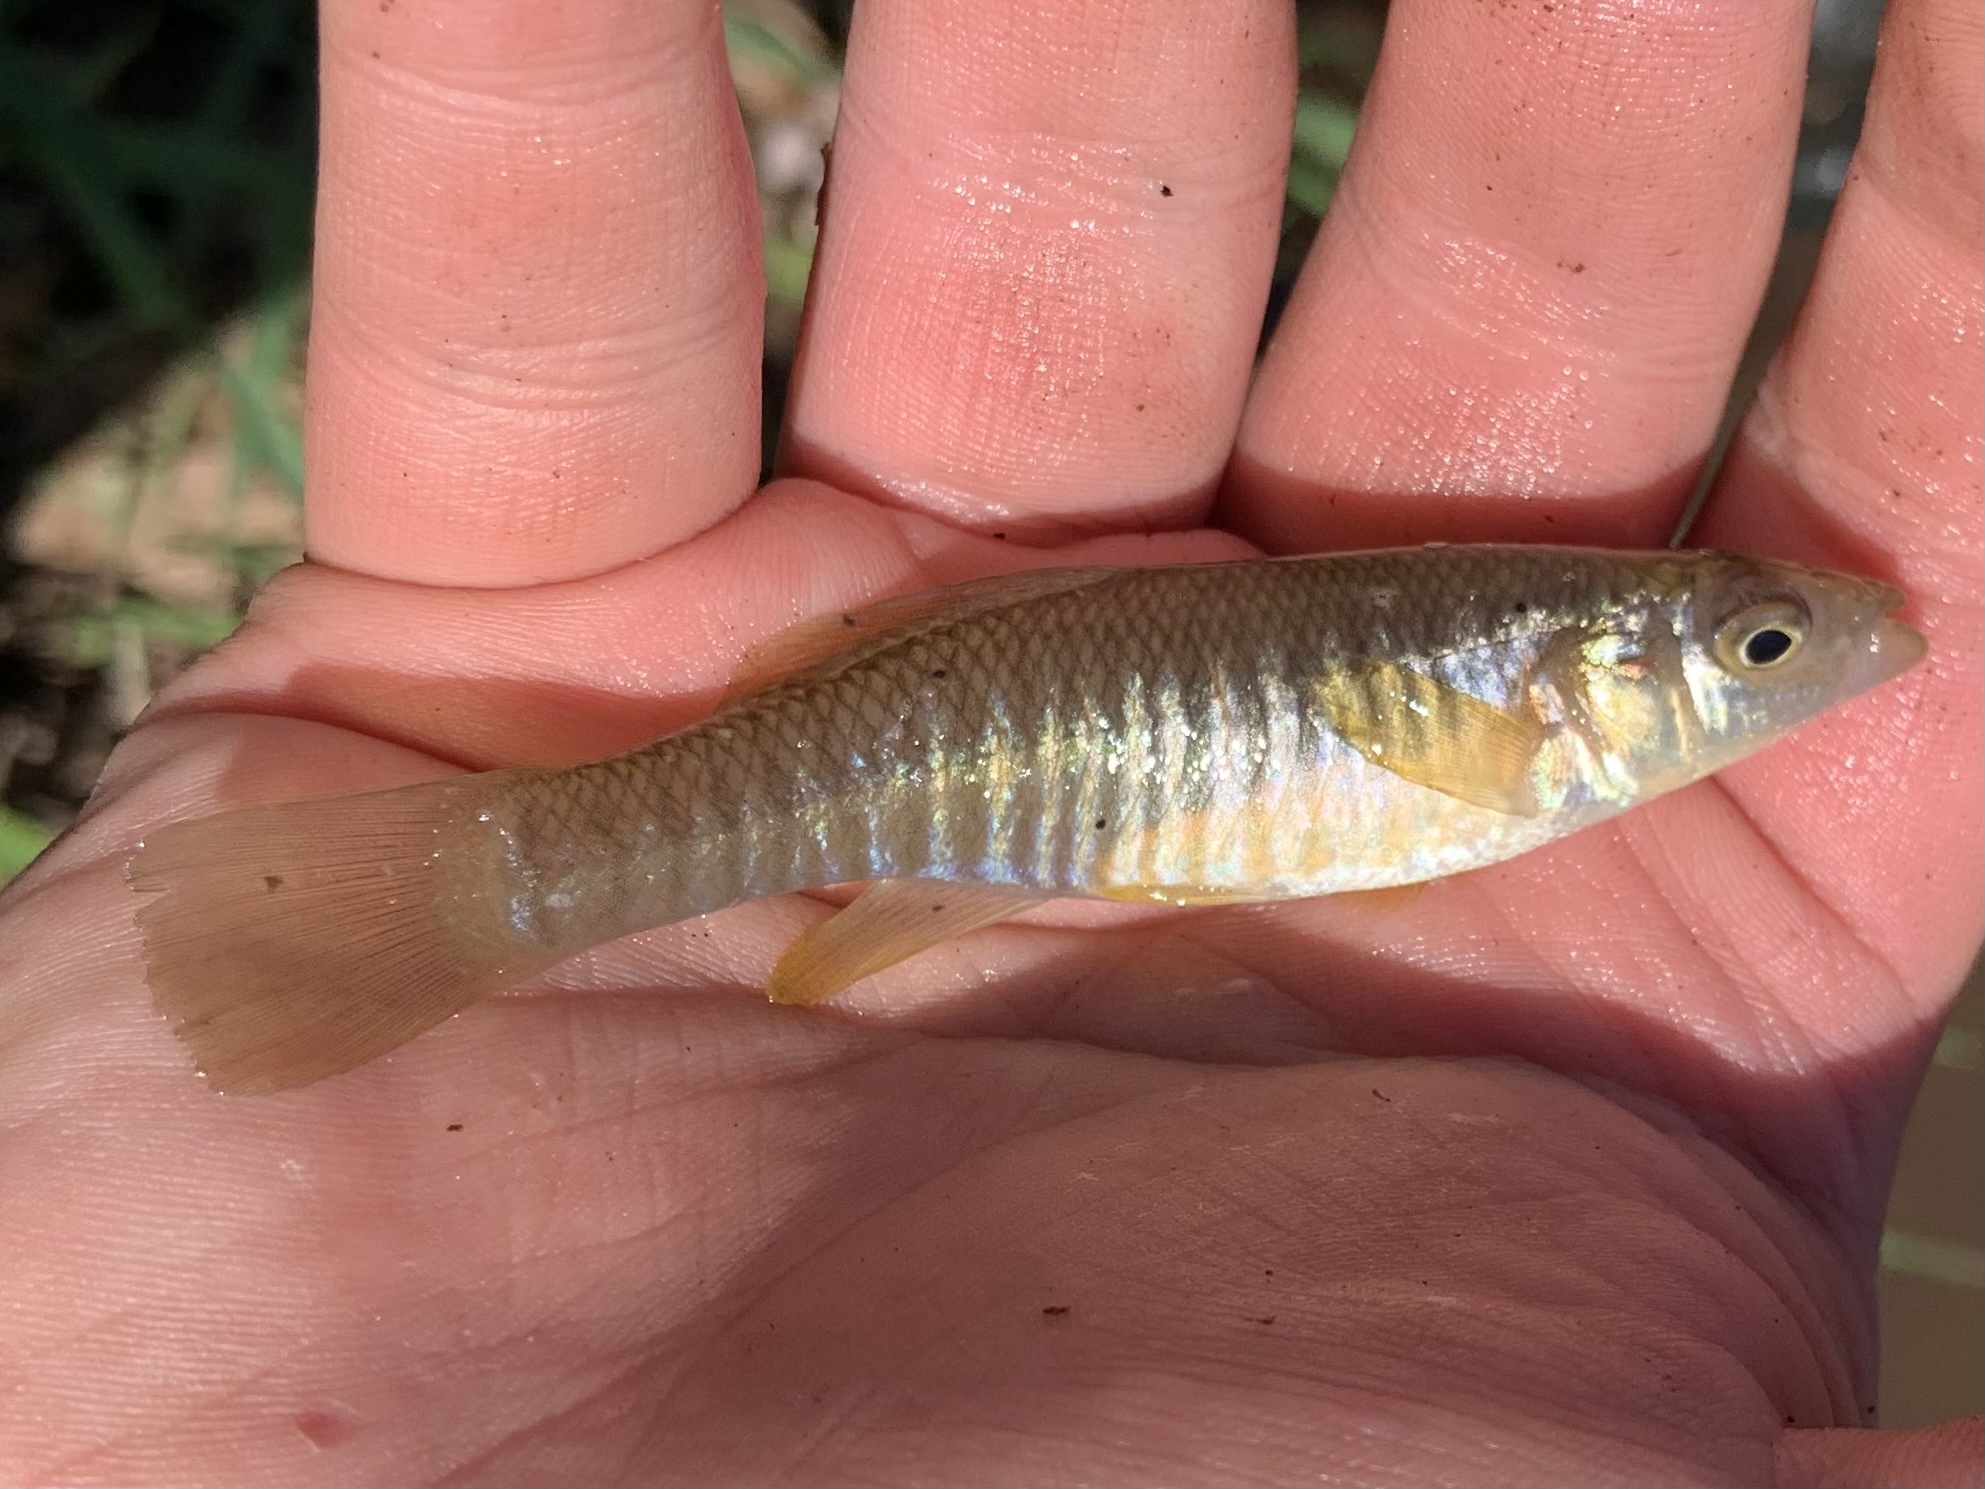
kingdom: Animalia
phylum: Chordata
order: Cyprinodontiformes
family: Fundulidae
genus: Fundulus
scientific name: Fundulus heteroclitus
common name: Mummichog
